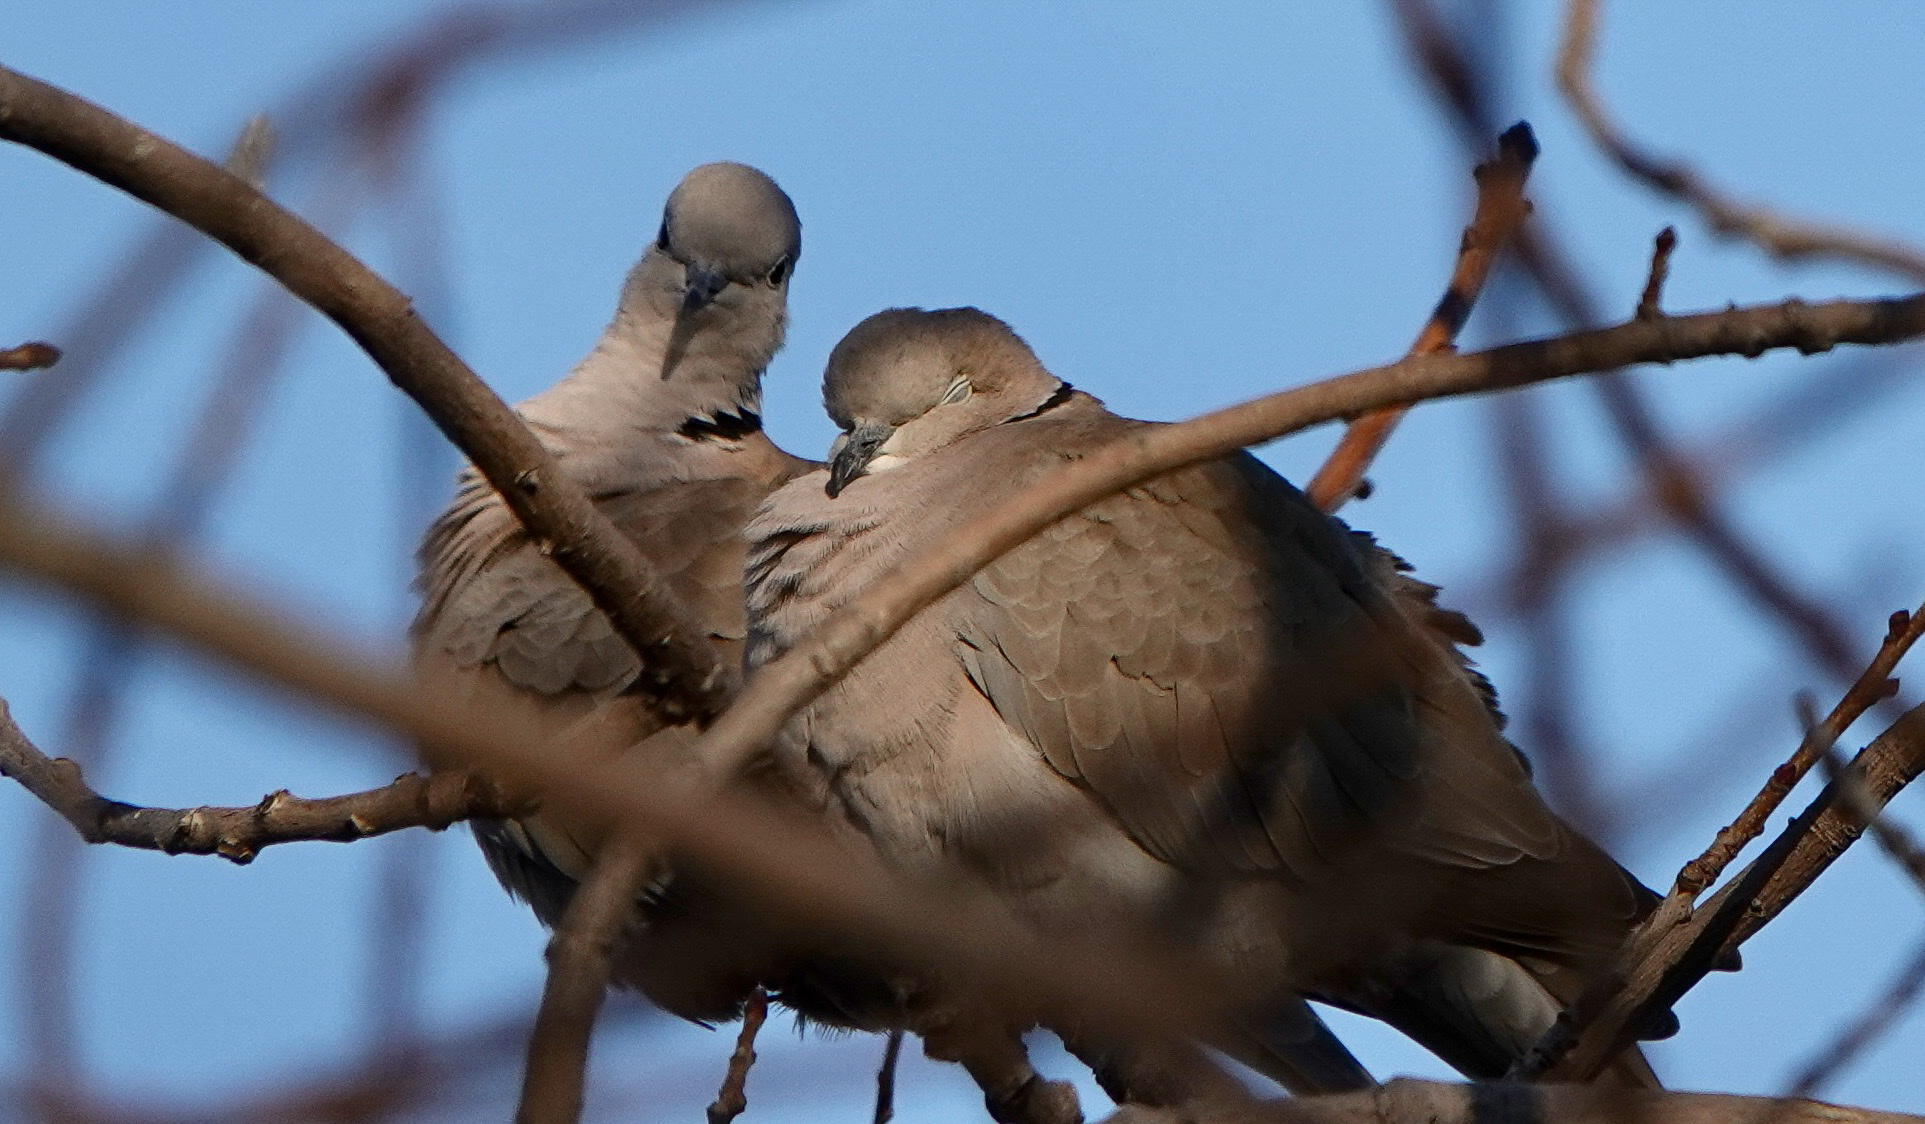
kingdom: Animalia
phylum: Chordata
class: Aves
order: Columbiformes
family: Columbidae
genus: Streptopelia
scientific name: Streptopelia decaocto
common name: Eurasian collared dove
